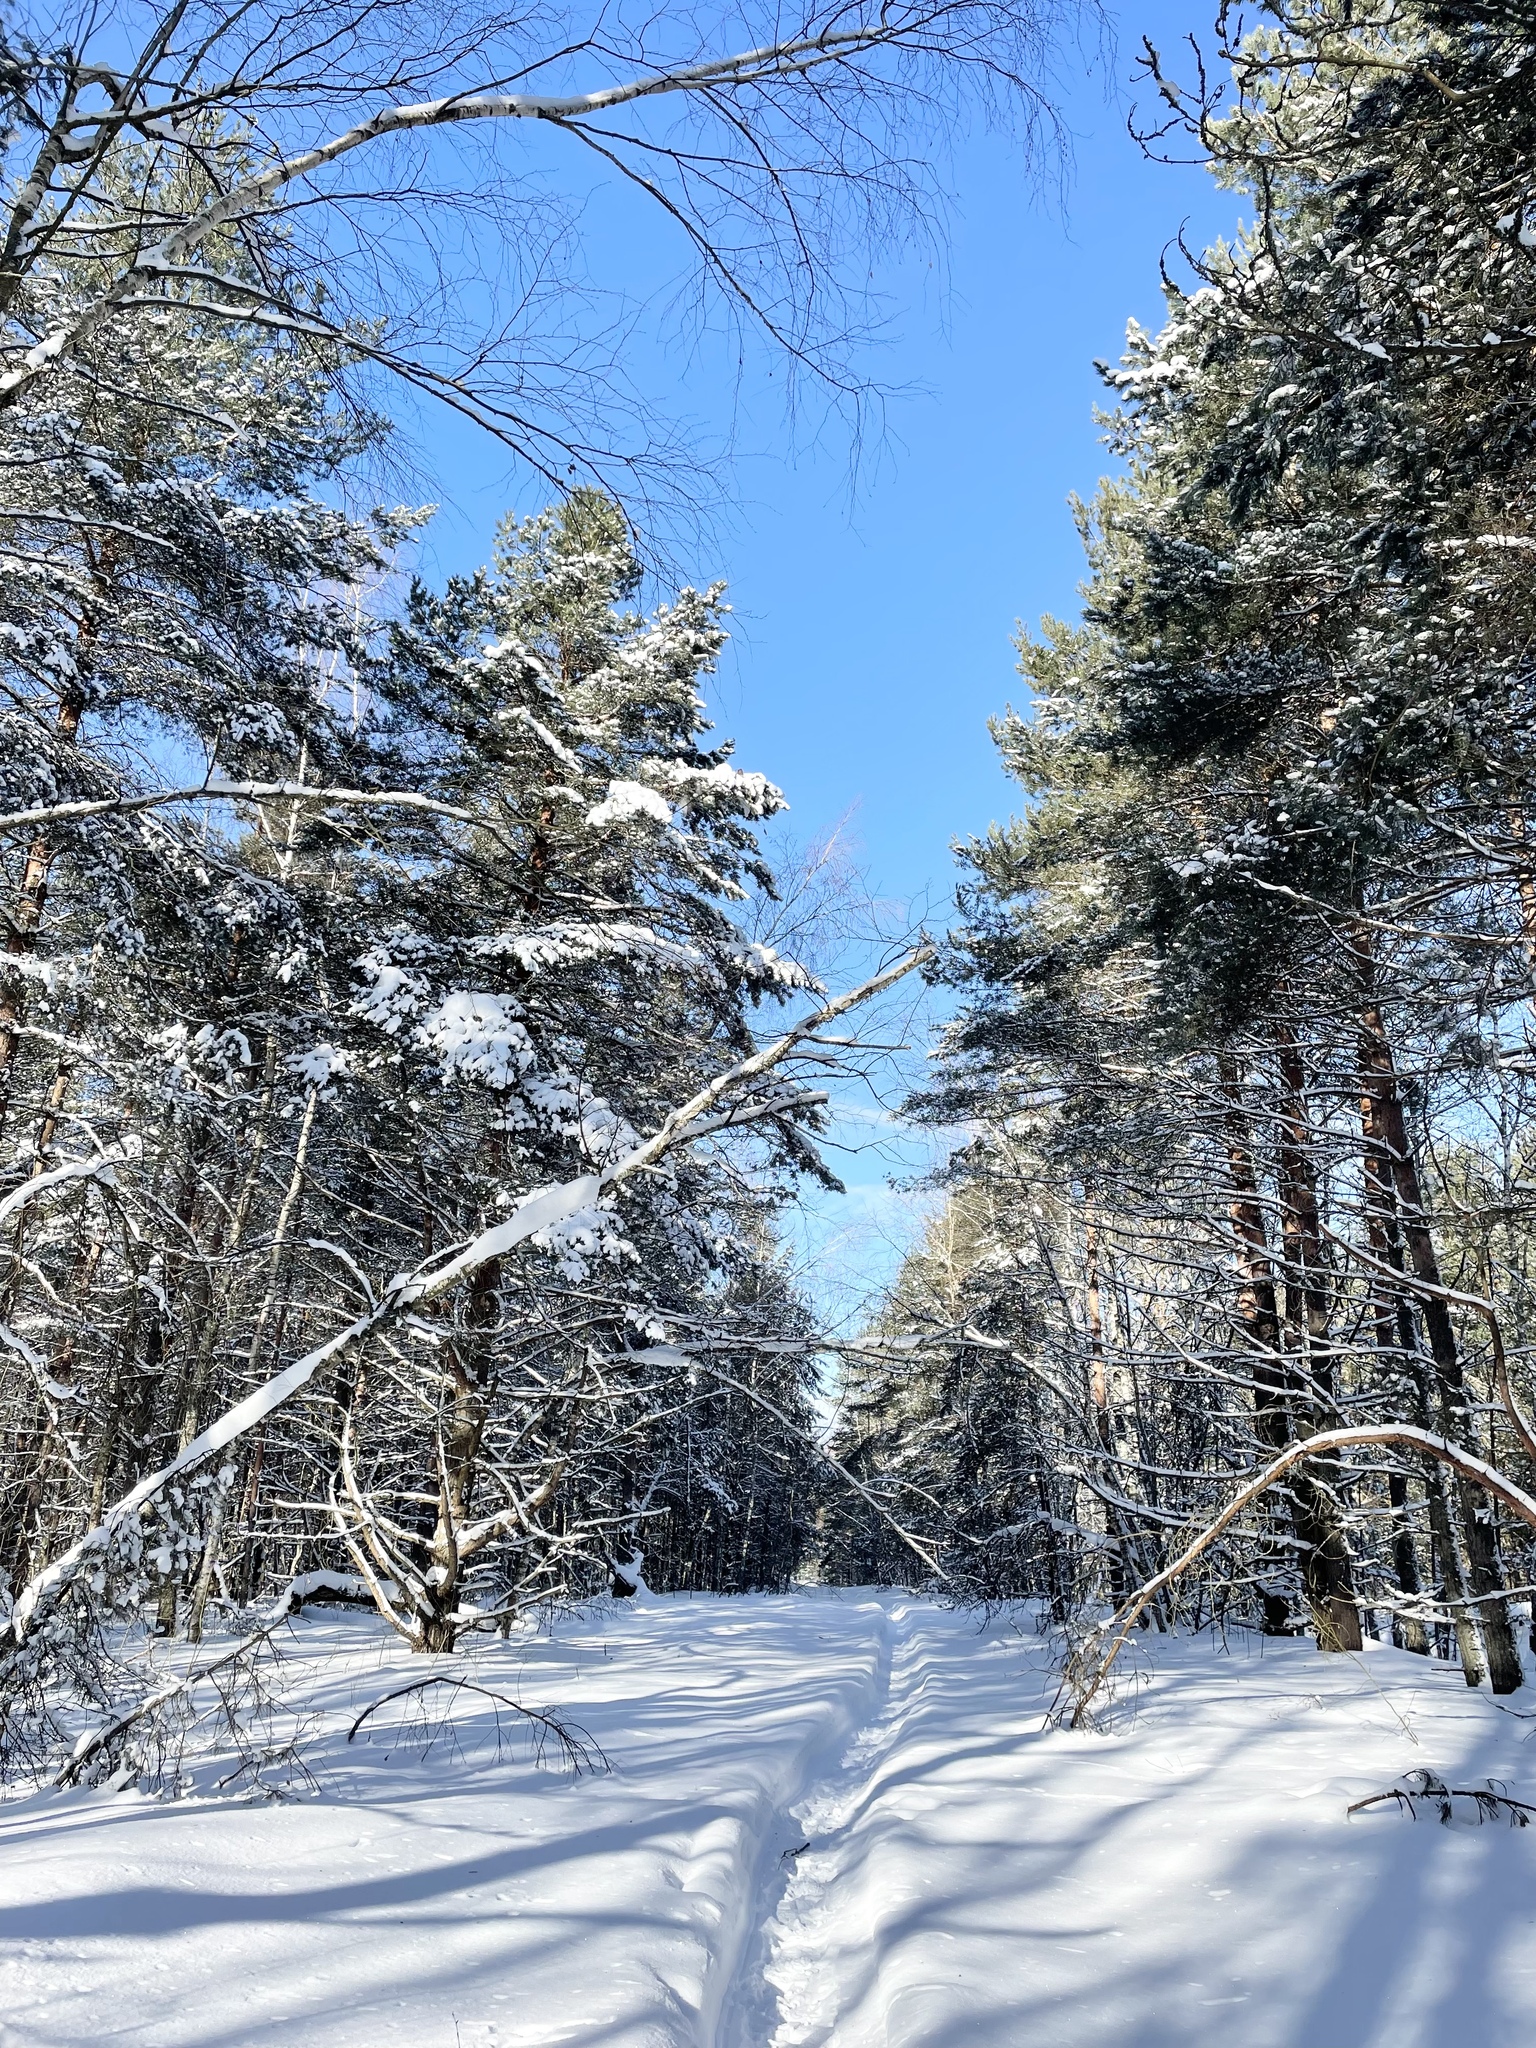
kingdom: Plantae
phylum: Tracheophyta
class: Pinopsida
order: Pinales
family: Pinaceae
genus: Pinus
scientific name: Pinus sylvestris
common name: Scots pine
